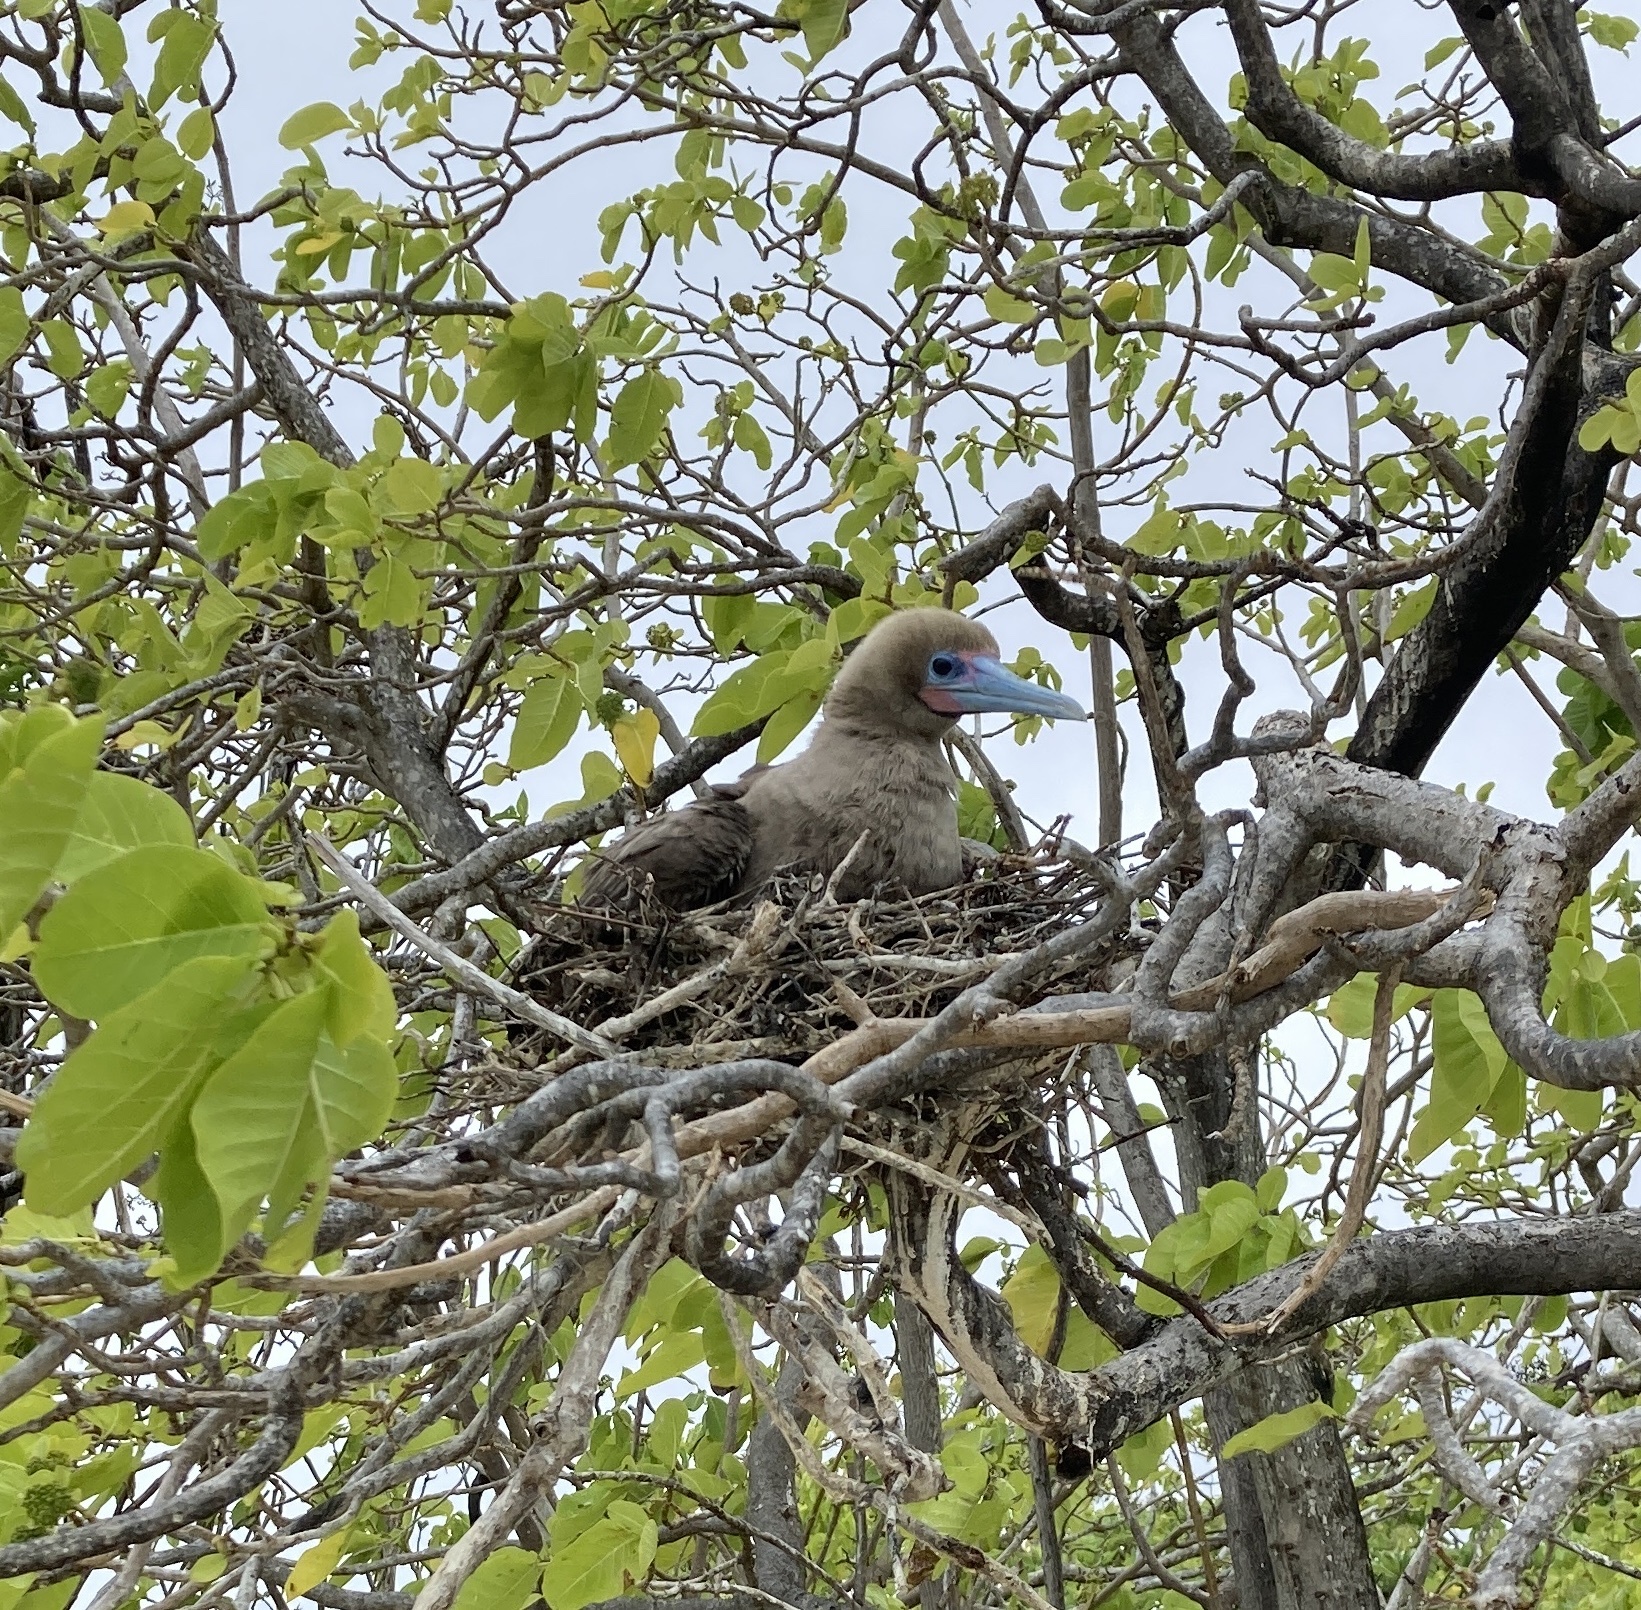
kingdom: Animalia
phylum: Chordata
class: Aves
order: Suliformes
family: Sulidae
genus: Sula
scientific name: Sula sula
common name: Red-footed booby
